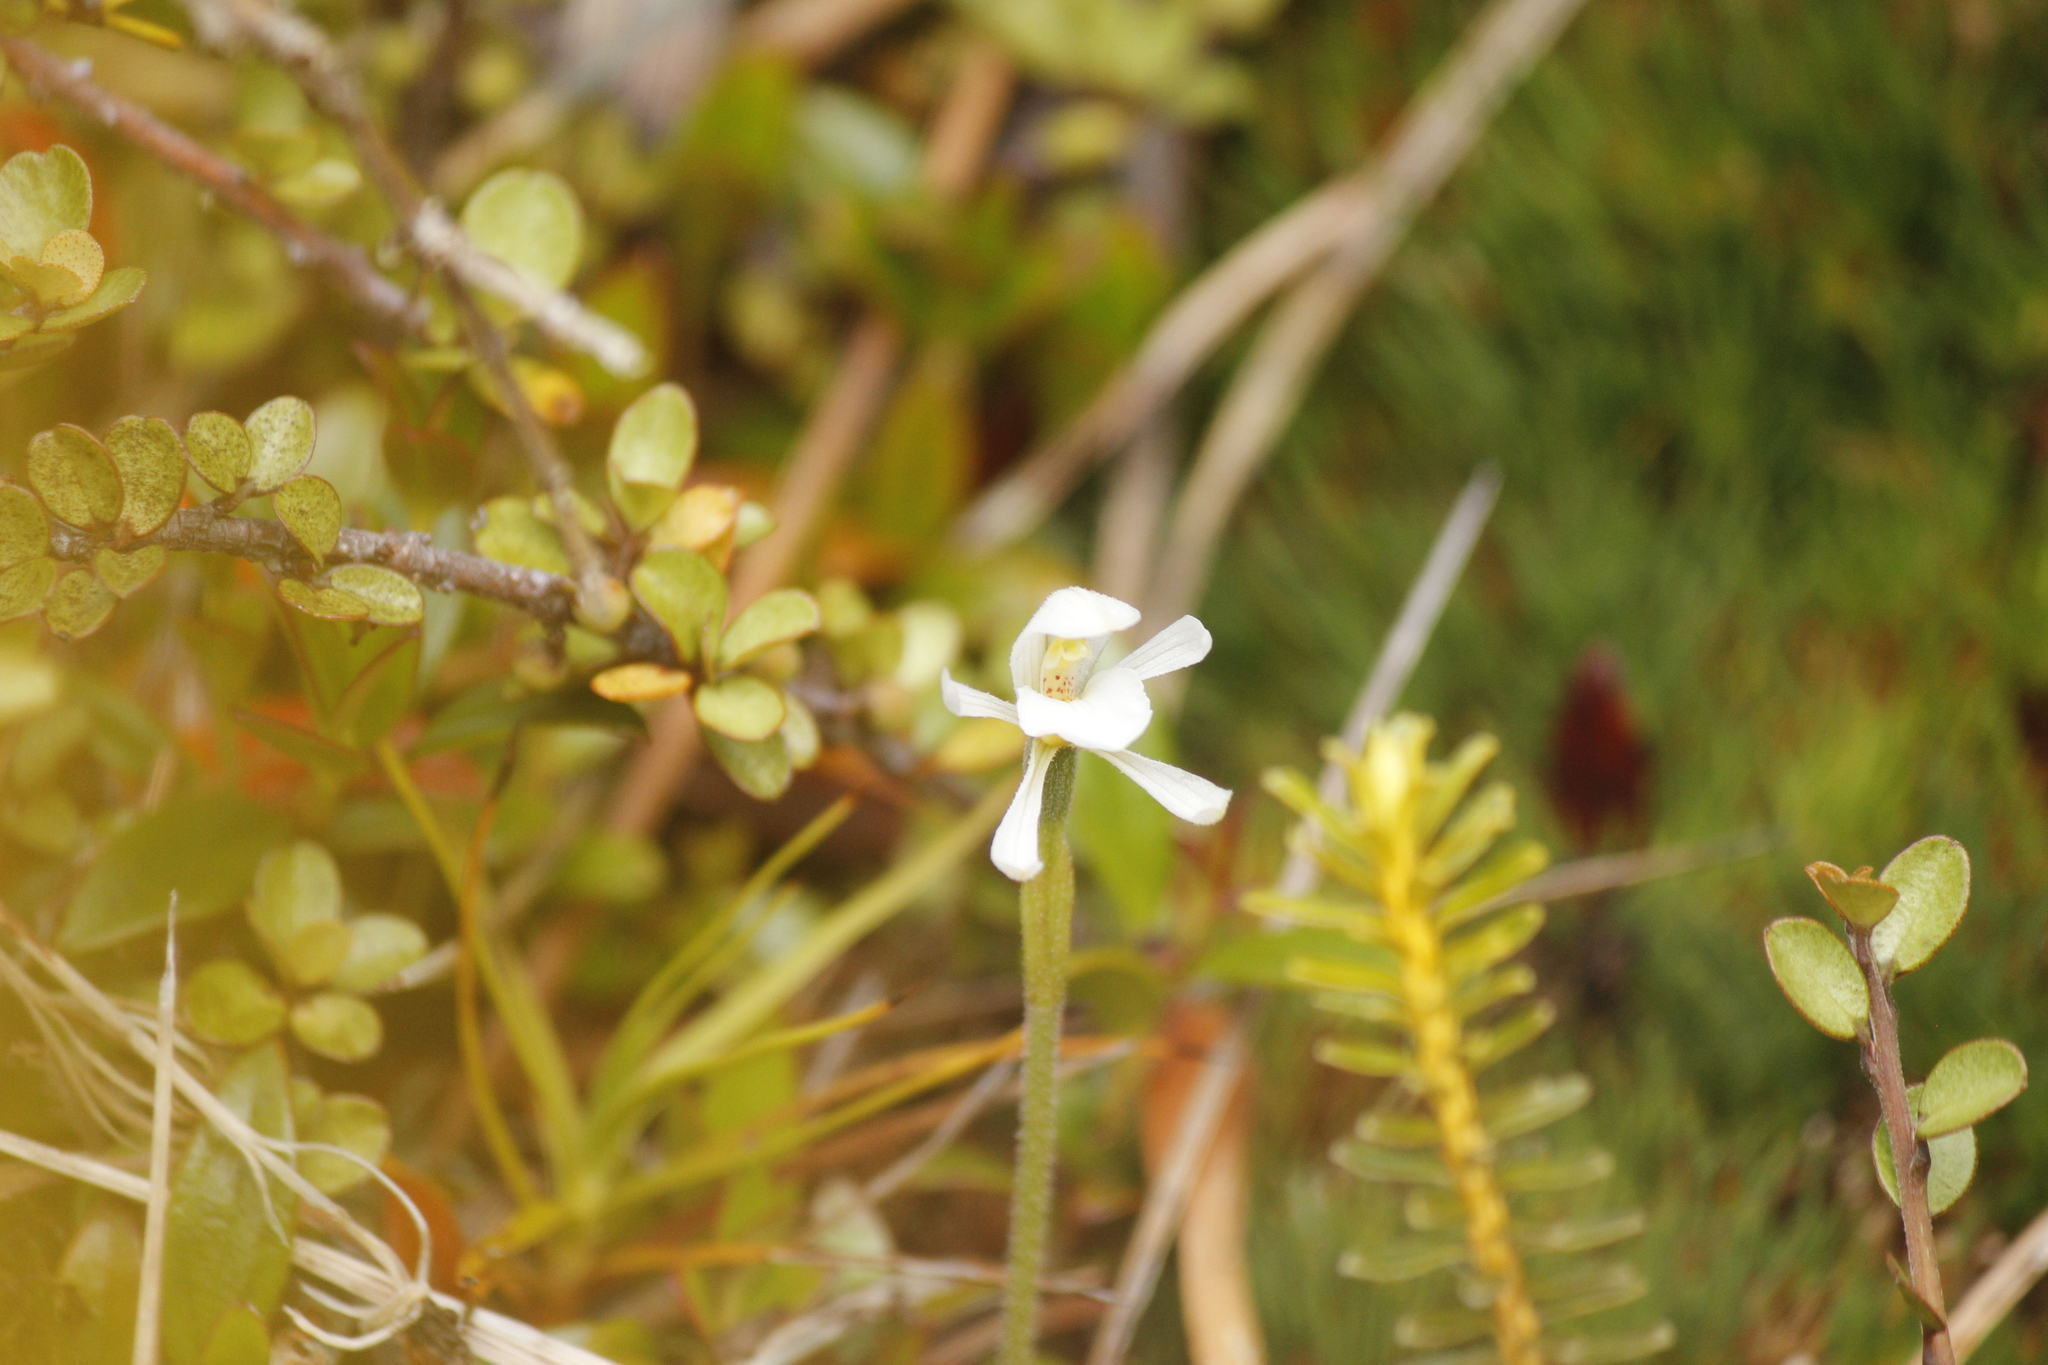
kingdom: Plantae
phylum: Tracheophyta
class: Liliopsida
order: Asparagales
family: Orchidaceae
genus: Aporostylis
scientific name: Aporostylis bifolia
